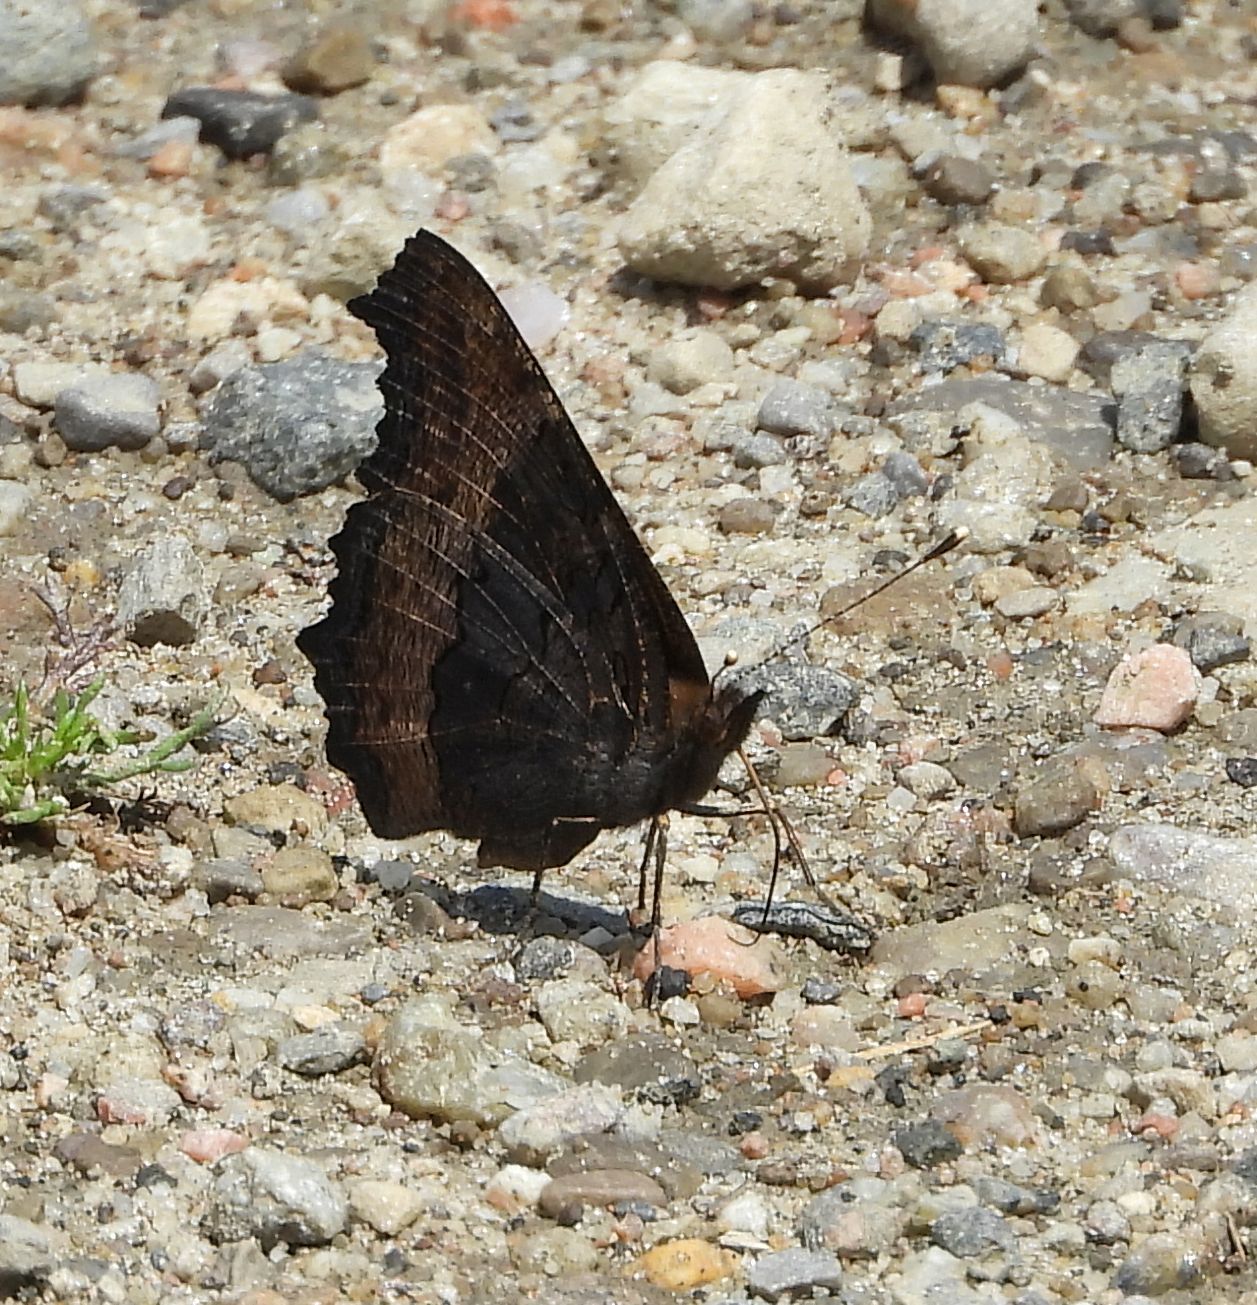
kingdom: Animalia
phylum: Arthropoda
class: Insecta
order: Lepidoptera
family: Nymphalidae
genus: Aglais
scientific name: Aglais milberti
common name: Milbert's tortoiseshell
